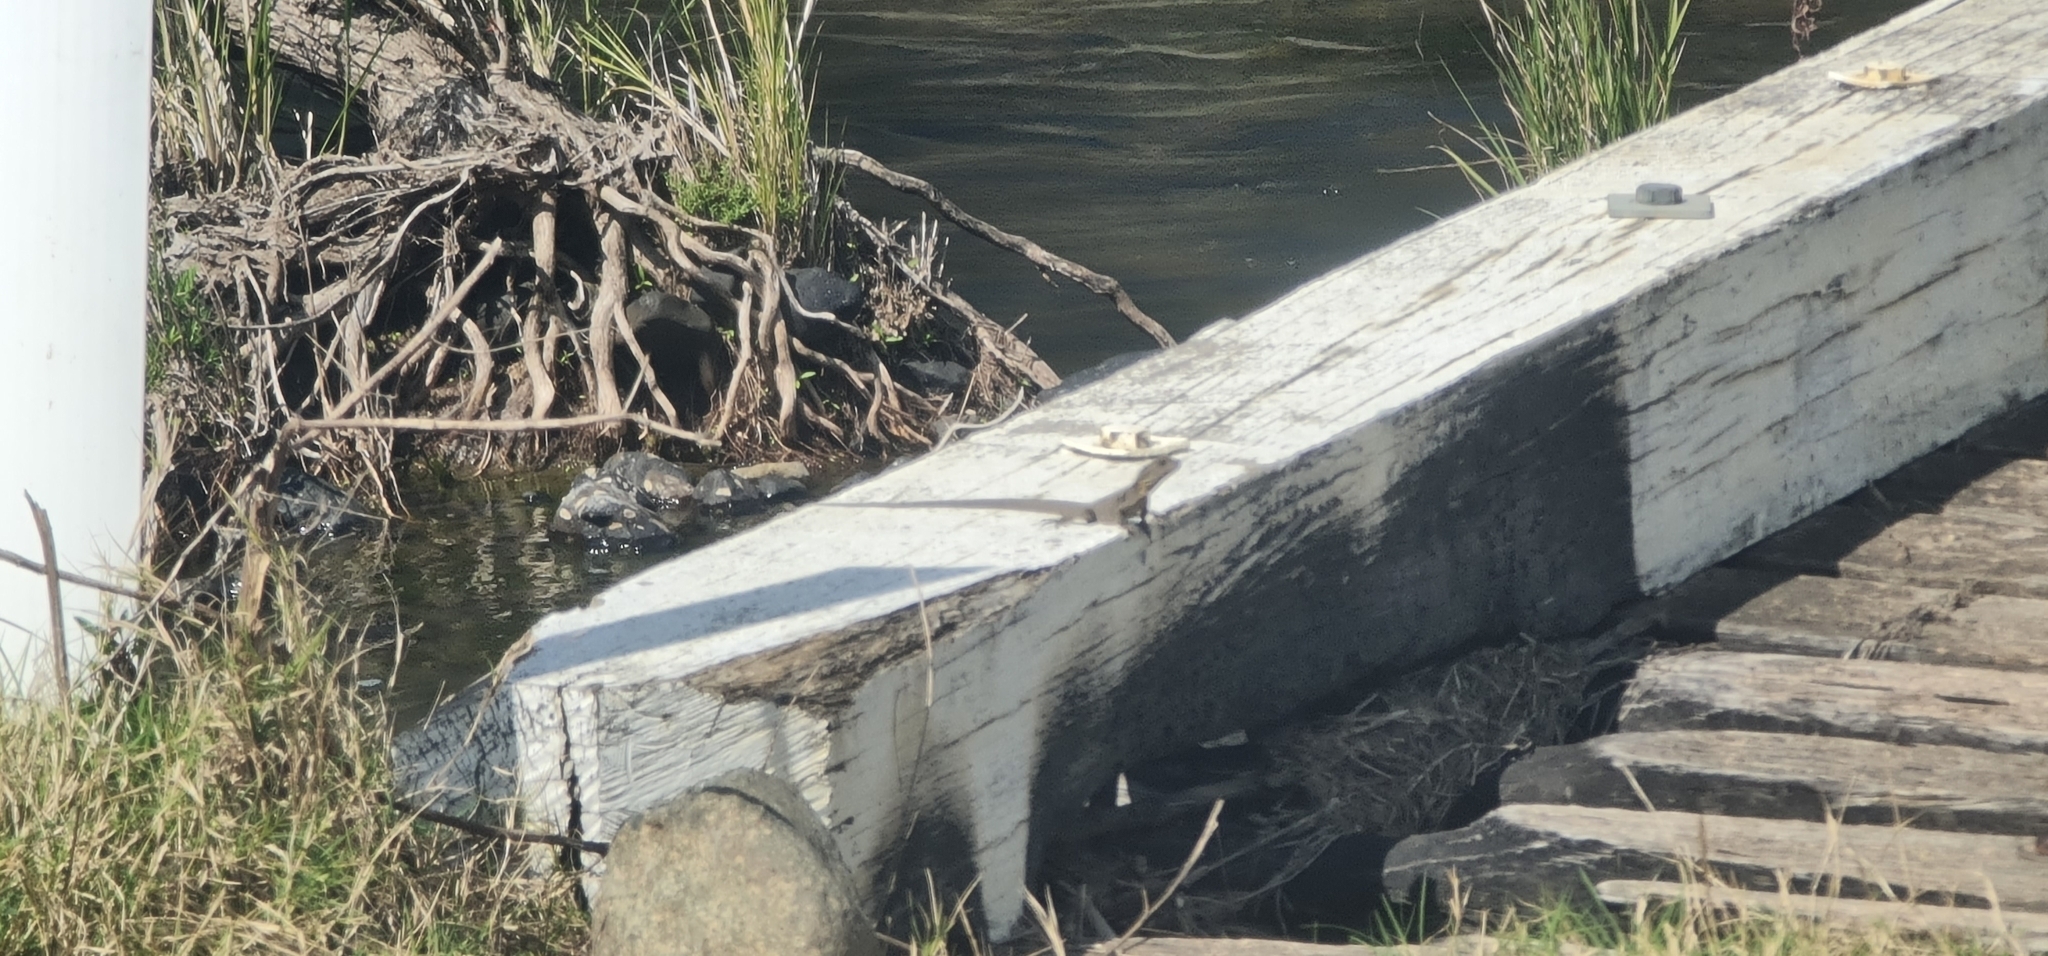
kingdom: Animalia
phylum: Chordata
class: Squamata
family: Agamidae
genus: Intellagama
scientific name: Intellagama lesueurii
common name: Eastern water dragon
